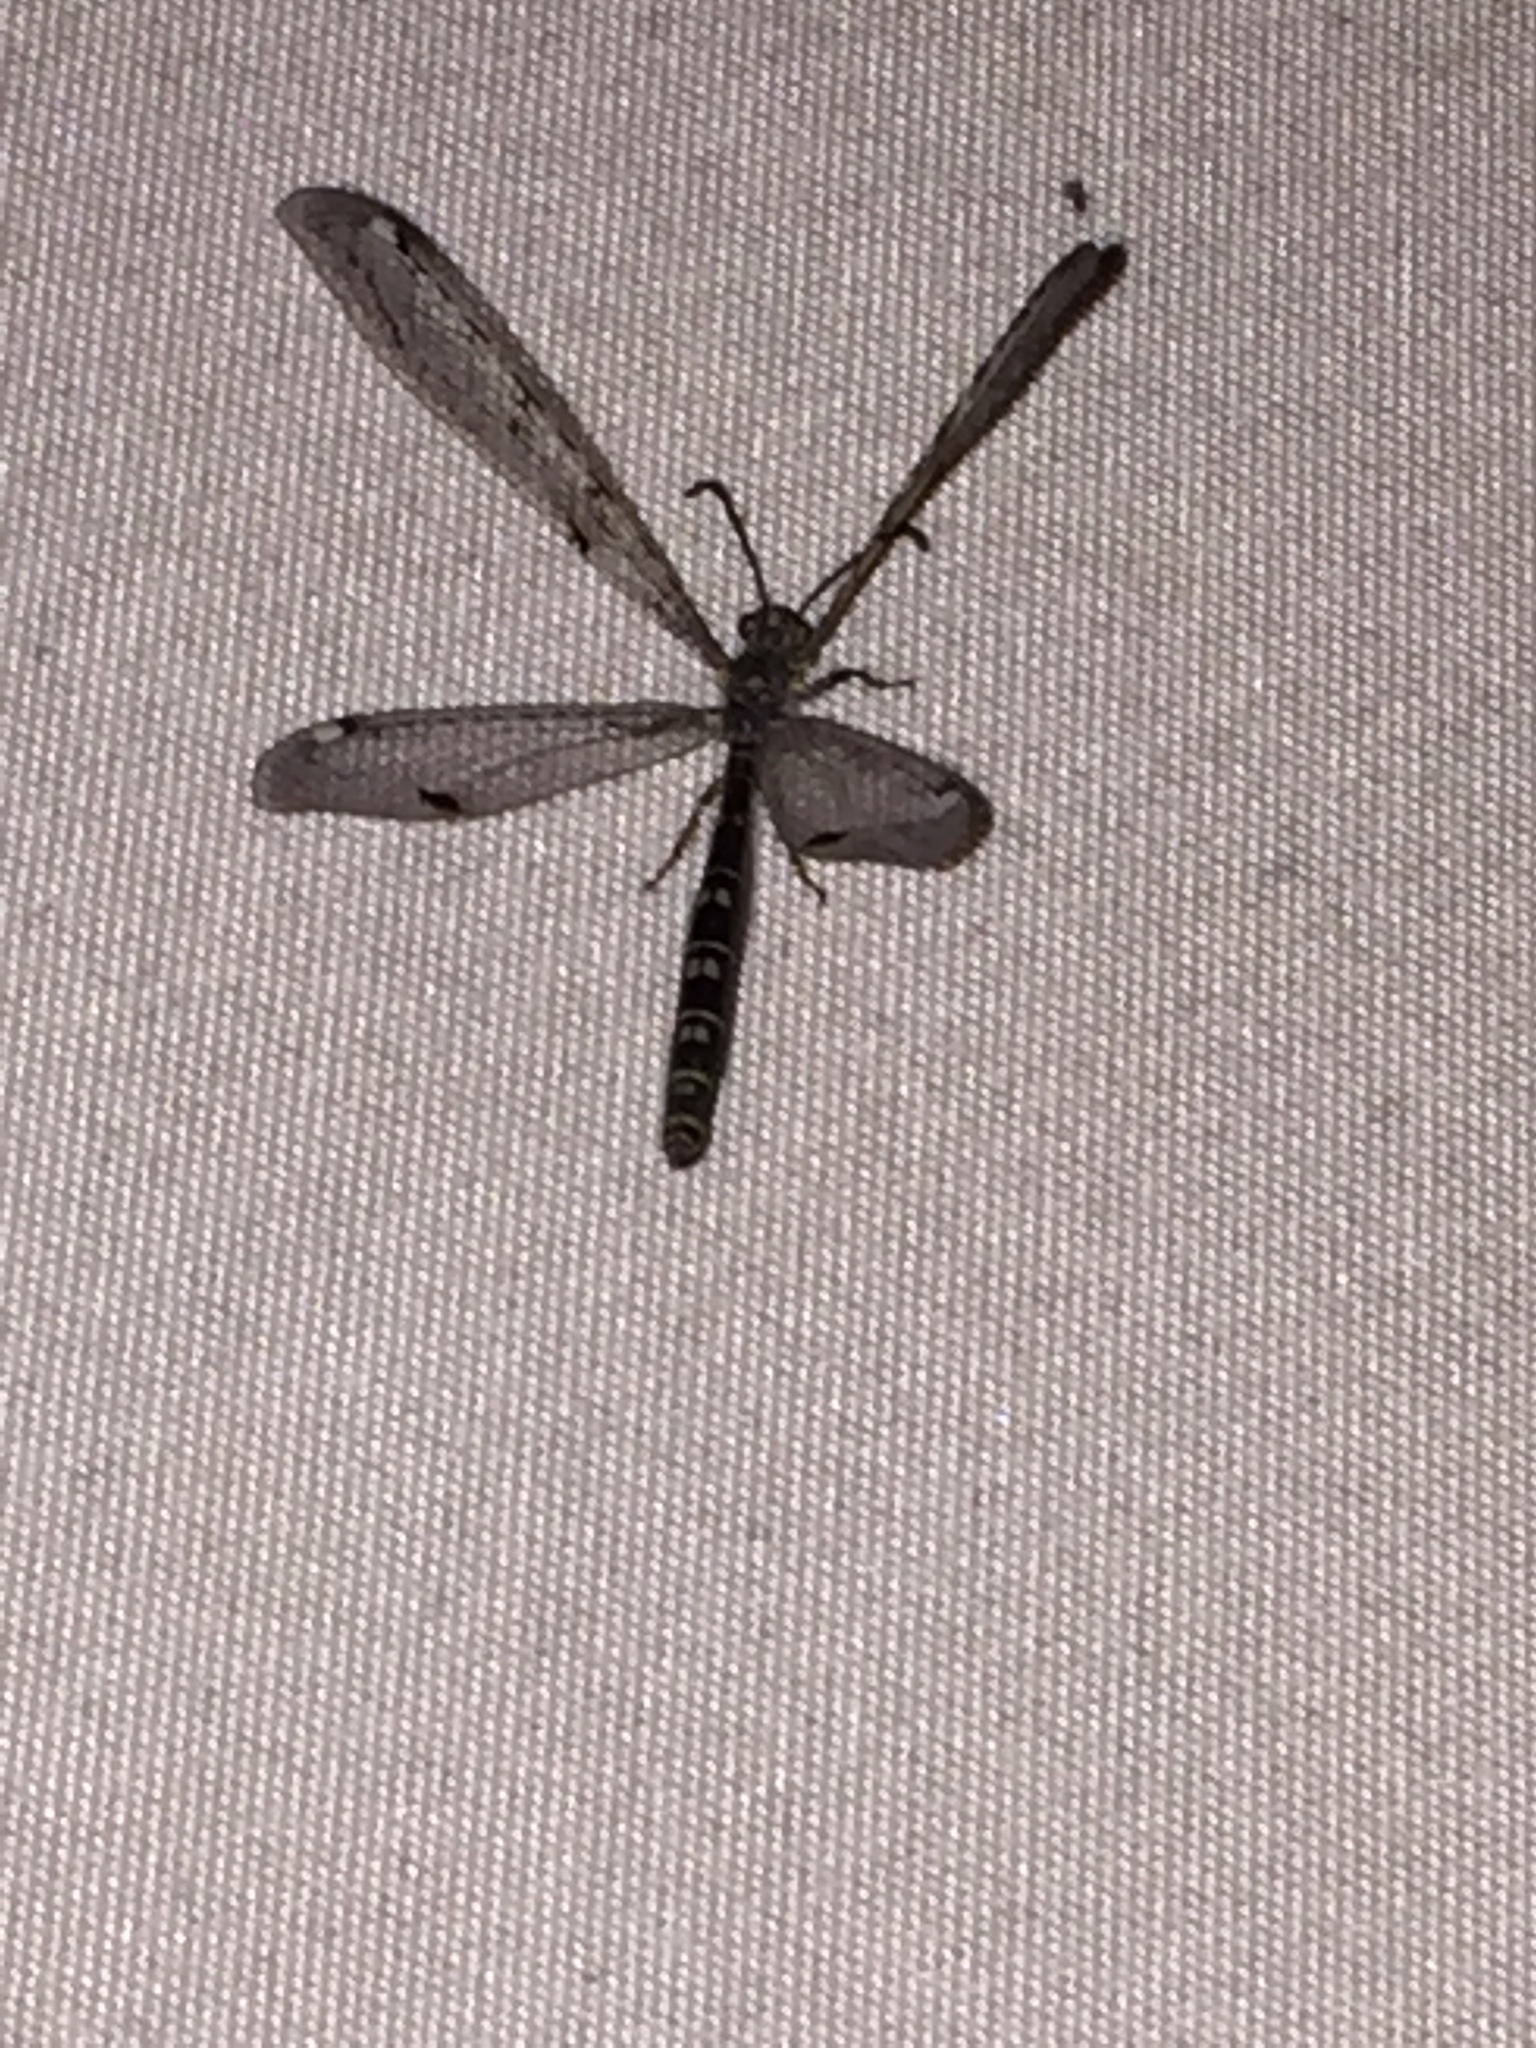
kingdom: Animalia
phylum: Arthropoda
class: Insecta
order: Neuroptera
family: Myrmeleontidae
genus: Distoleon
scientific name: Distoleon tetragrammicus
